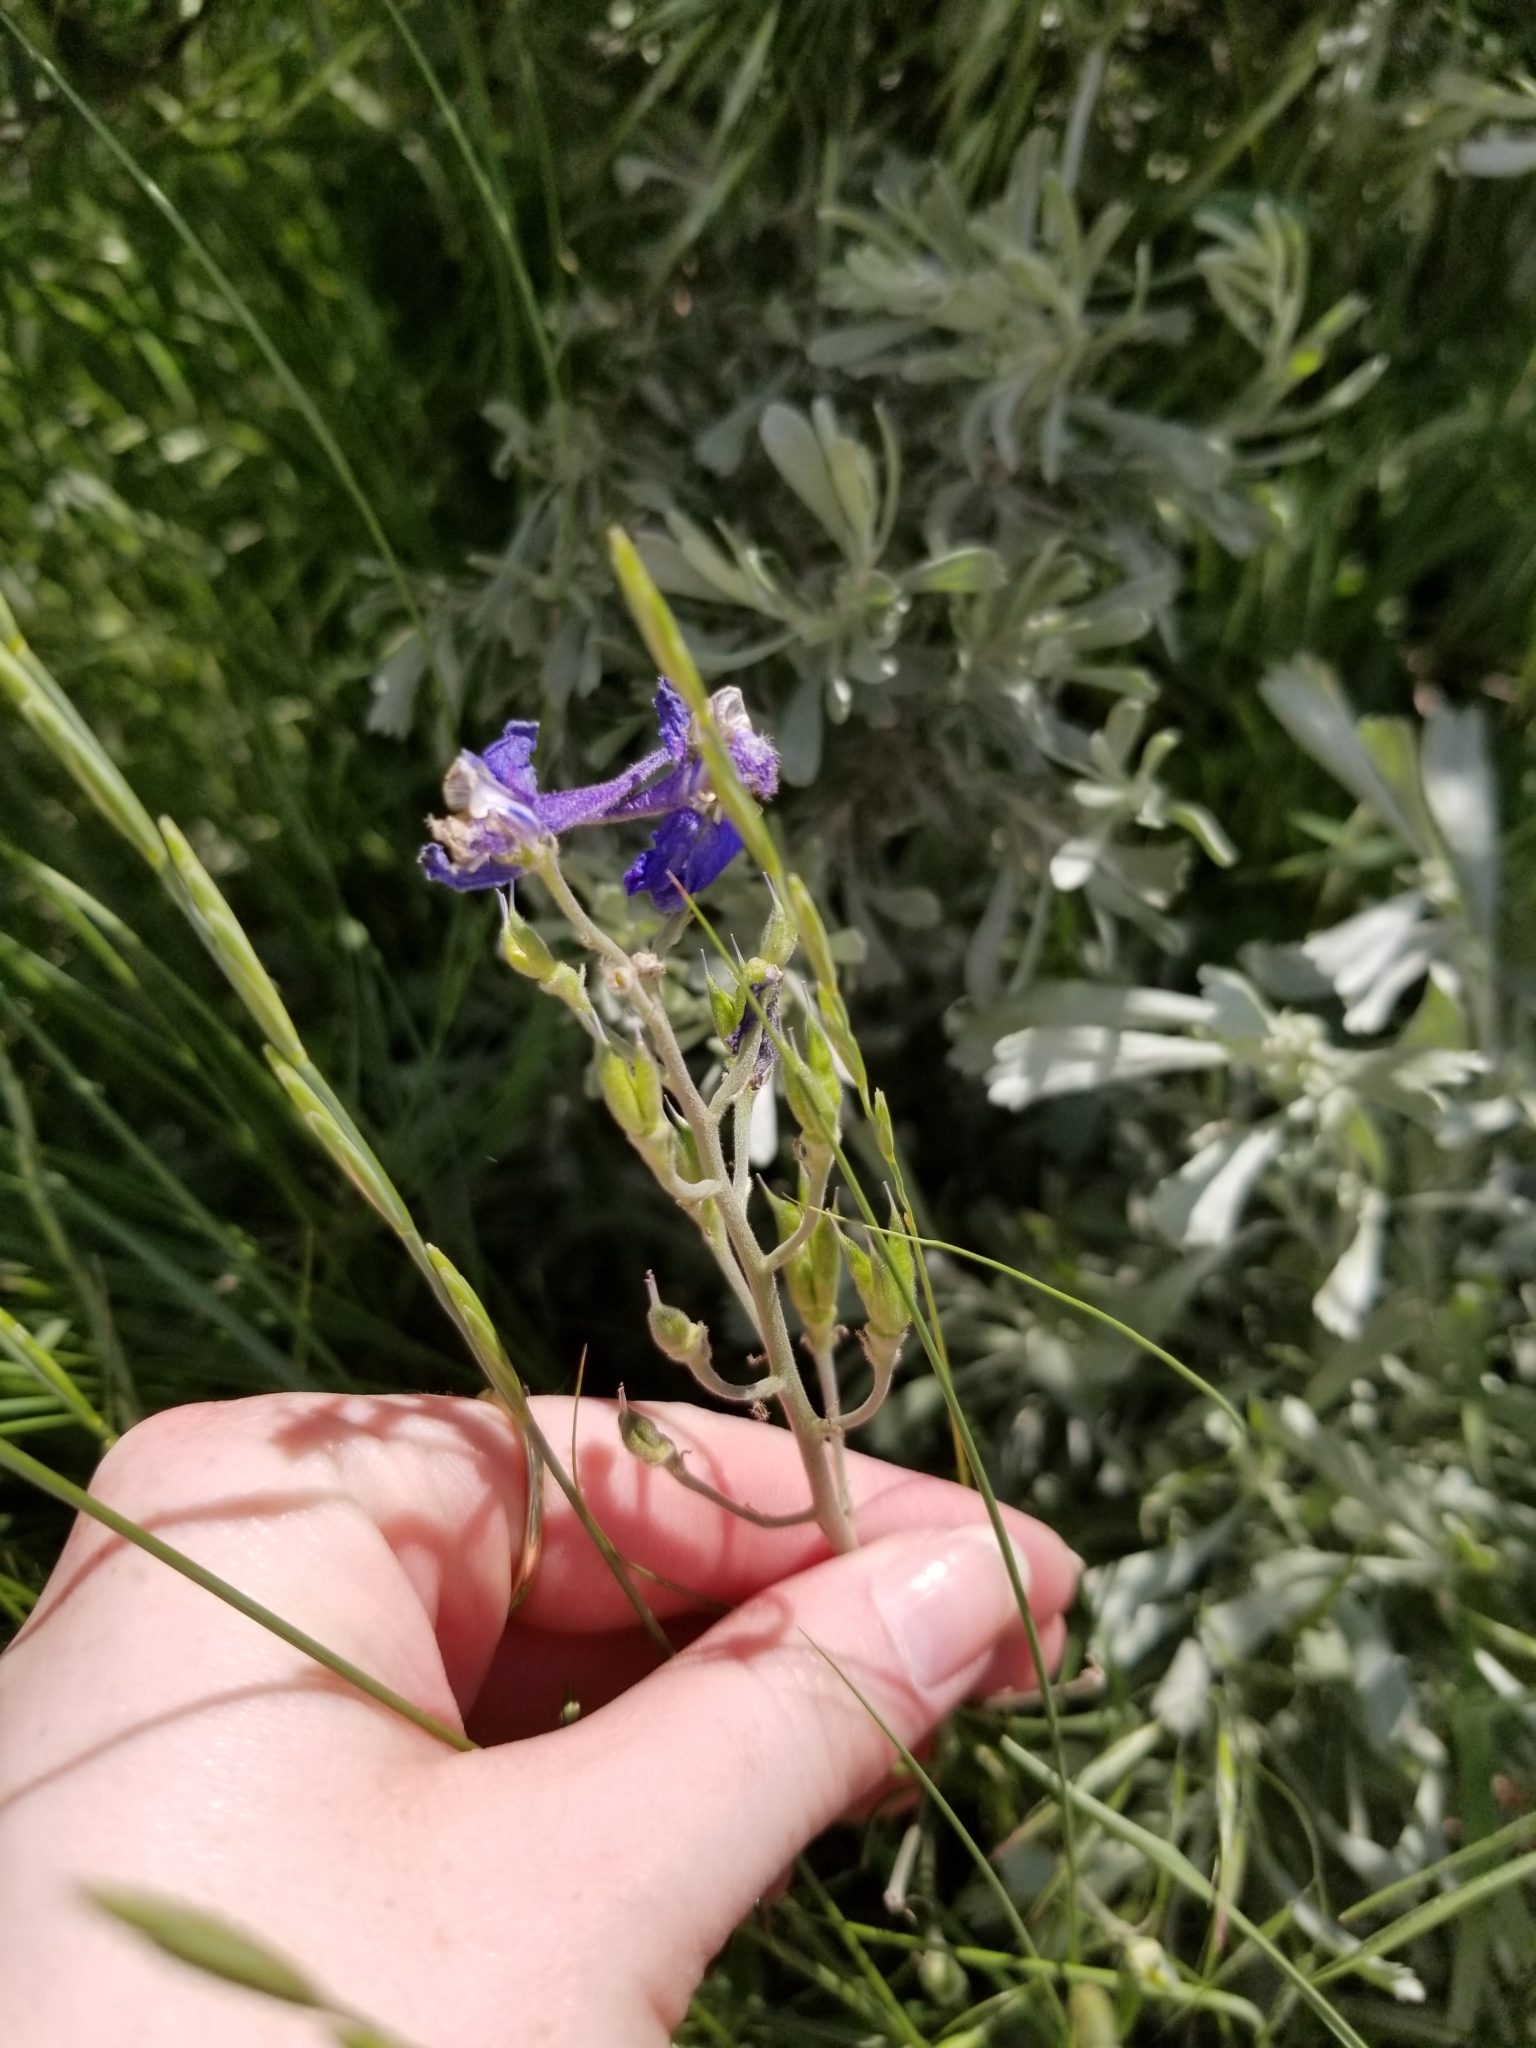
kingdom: Plantae
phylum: Tracheophyta
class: Magnoliopsida
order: Ranunculales
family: Ranunculaceae
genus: Delphinium
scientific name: Delphinium nuttallianum
